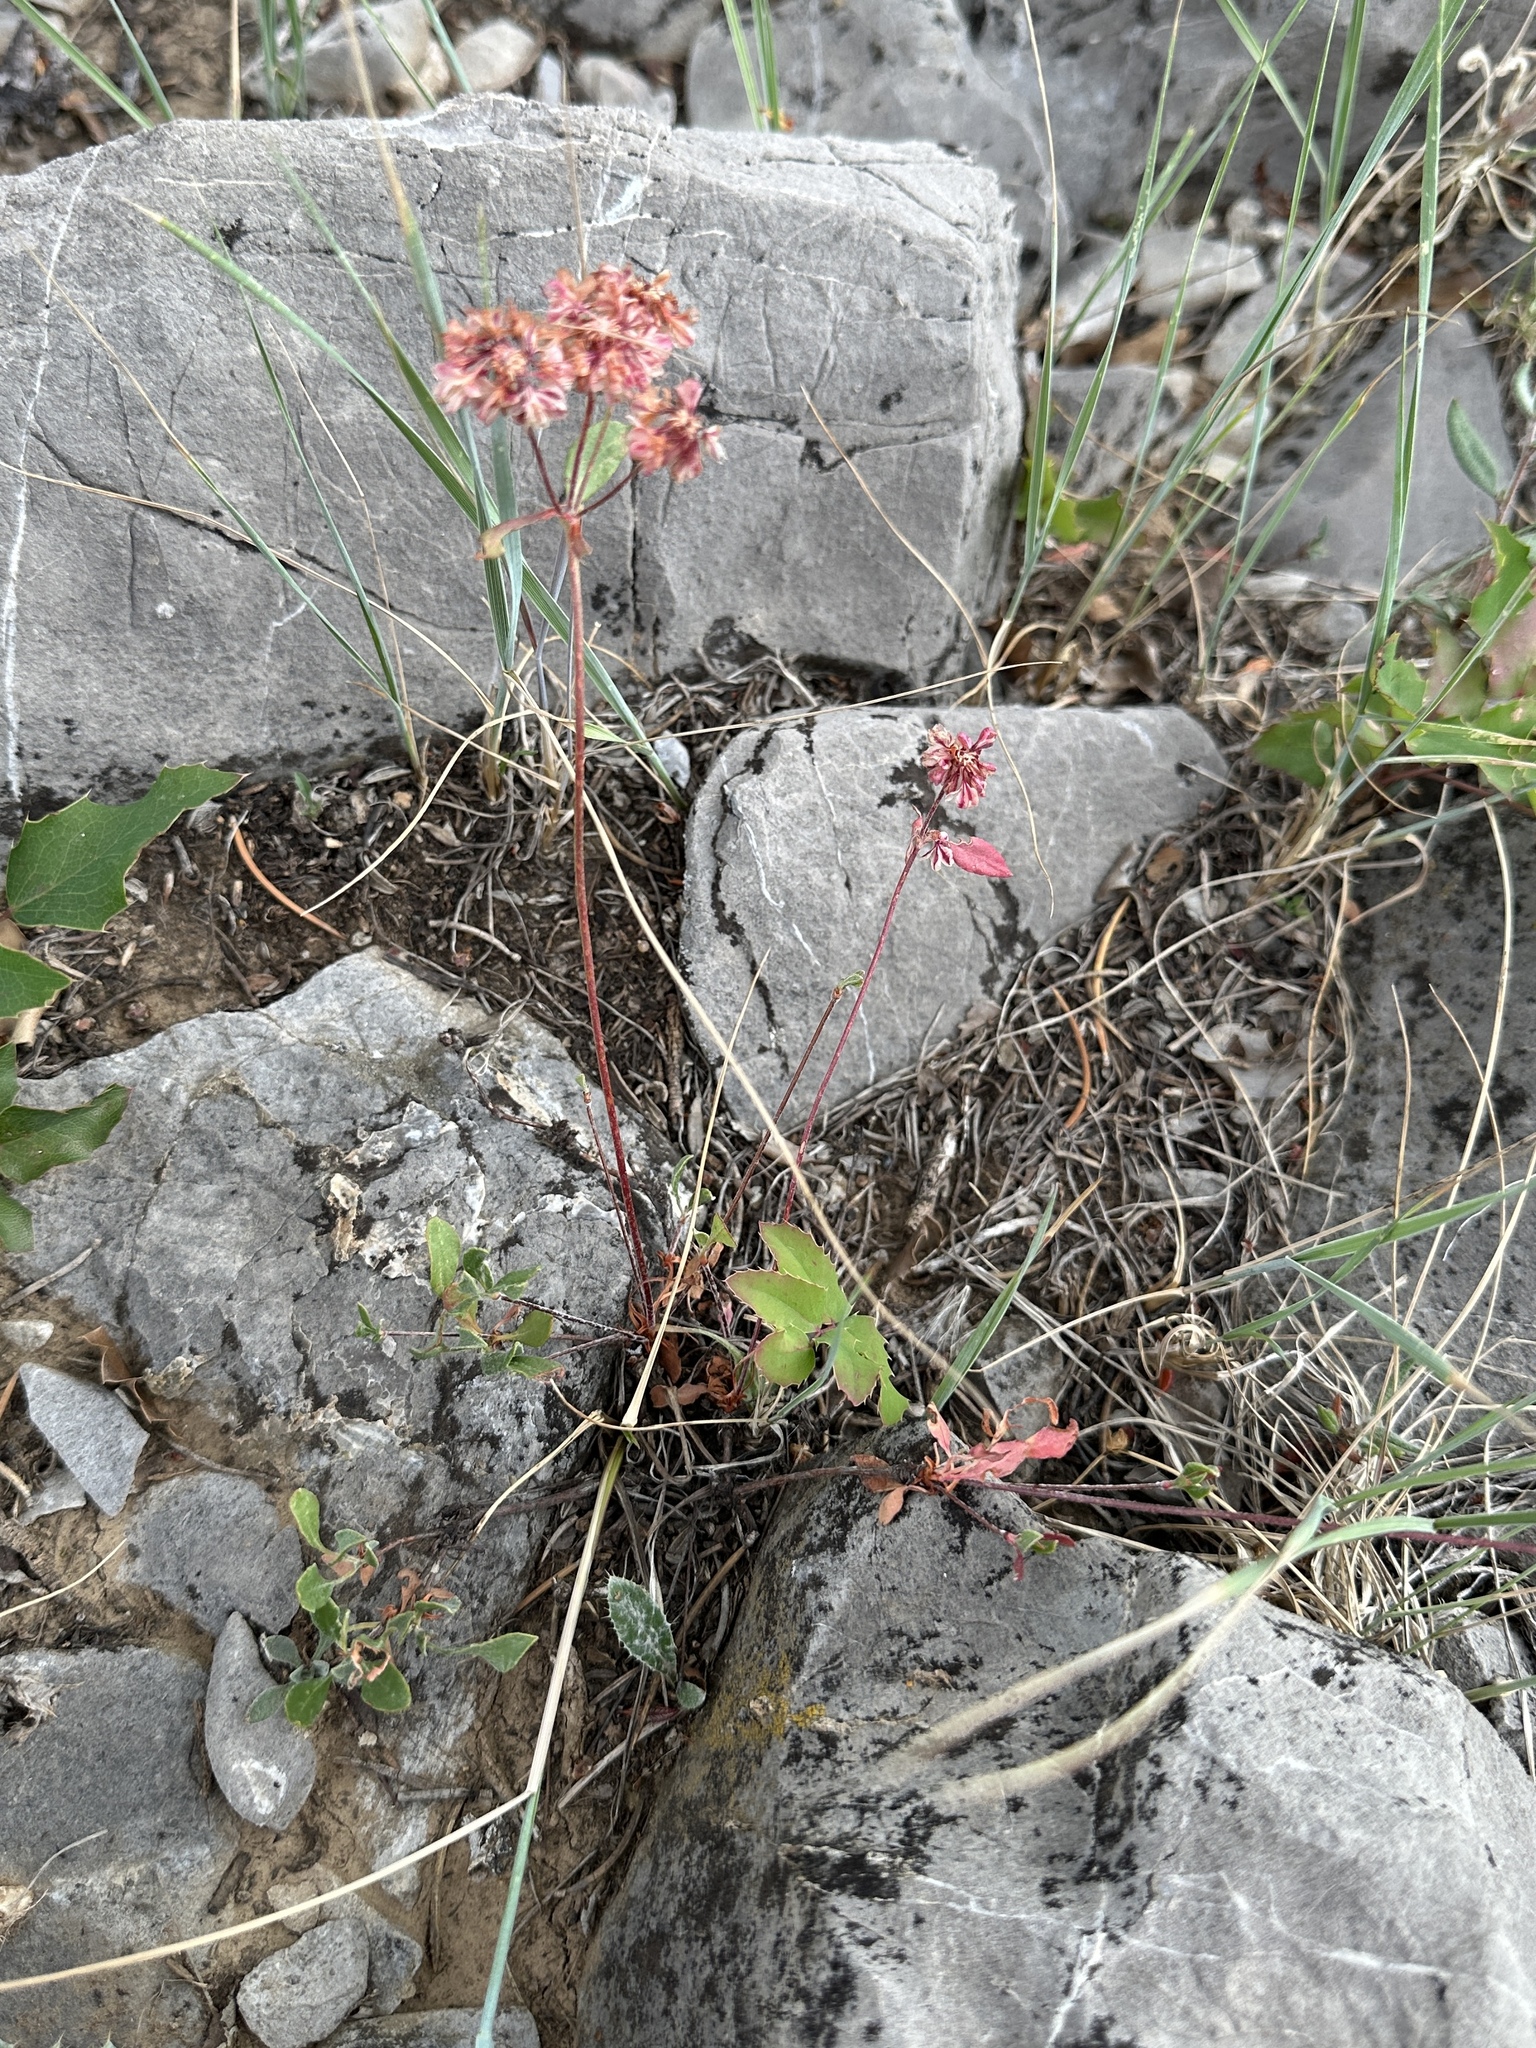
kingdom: Plantae
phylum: Tracheophyta
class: Magnoliopsida
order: Caryophyllales
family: Polygonaceae
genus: Eriogonum
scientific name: Eriogonum umbellatum
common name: Sulfur-buckwheat
